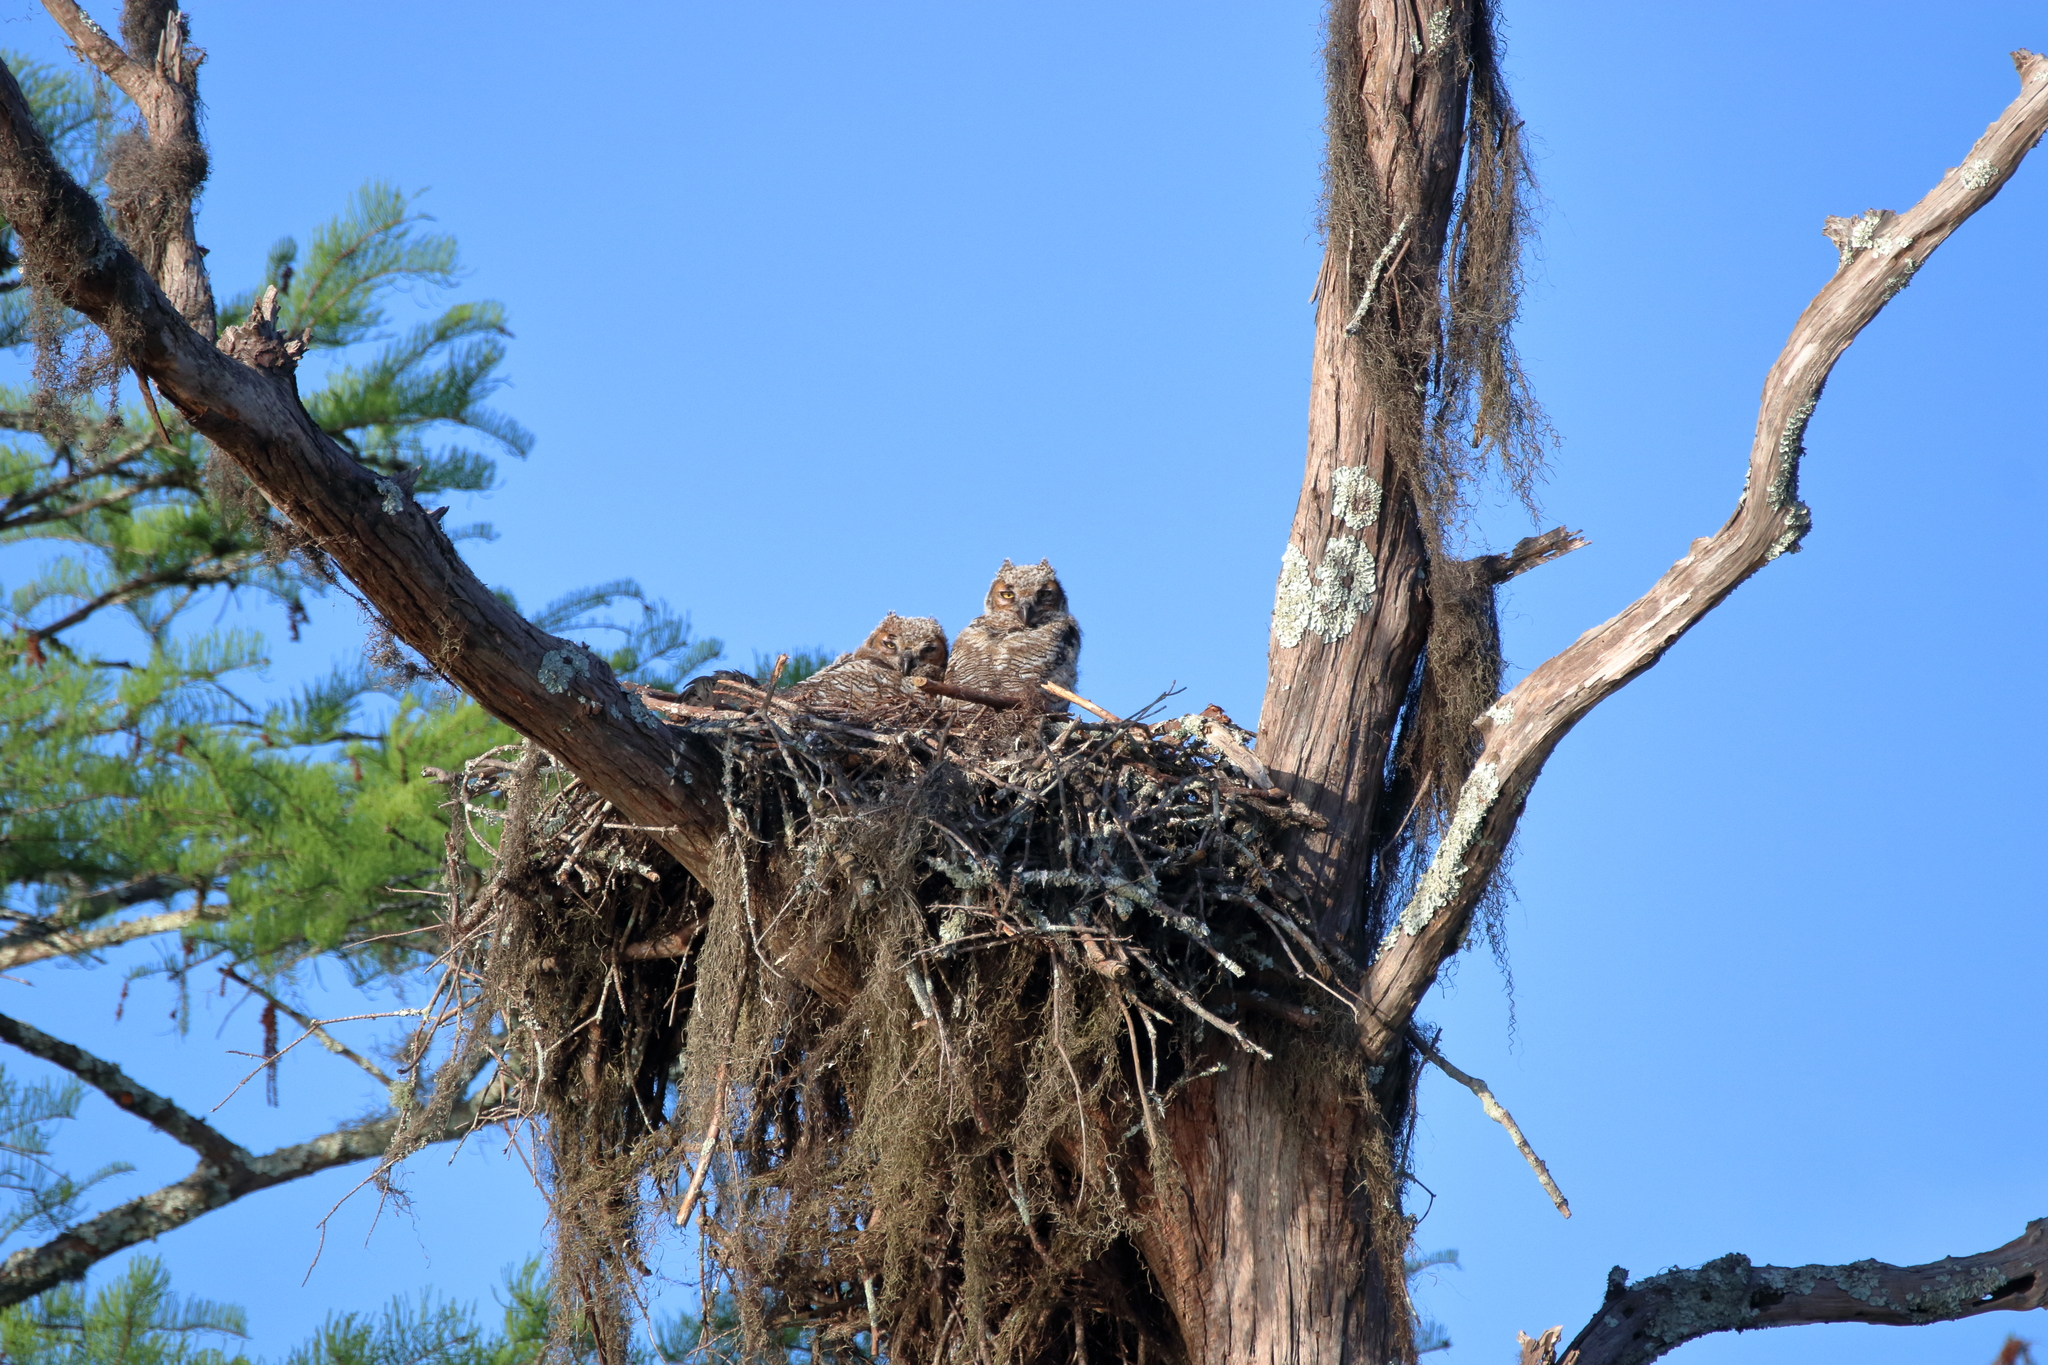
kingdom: Animalia
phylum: Chordata
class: Aves
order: Strigiformes
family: Strigidae
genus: Bubo
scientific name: Bubo virginianus
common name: Great horned owl
